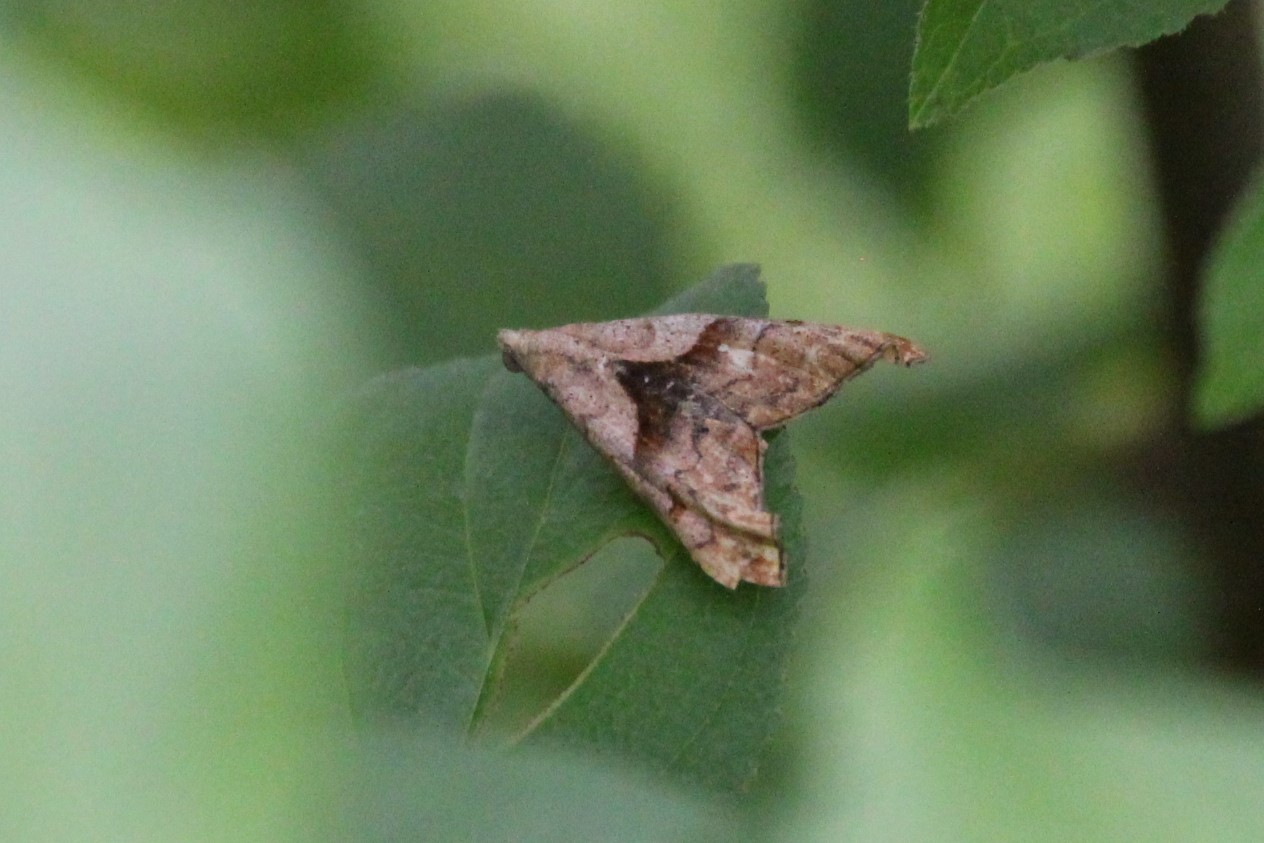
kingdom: Animalia
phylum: Arthropoda
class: Insecta
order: Lepidoptera
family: Erebidae
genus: Palthis
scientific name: Palthis angulalis
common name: Dark-spotted palthis moth
